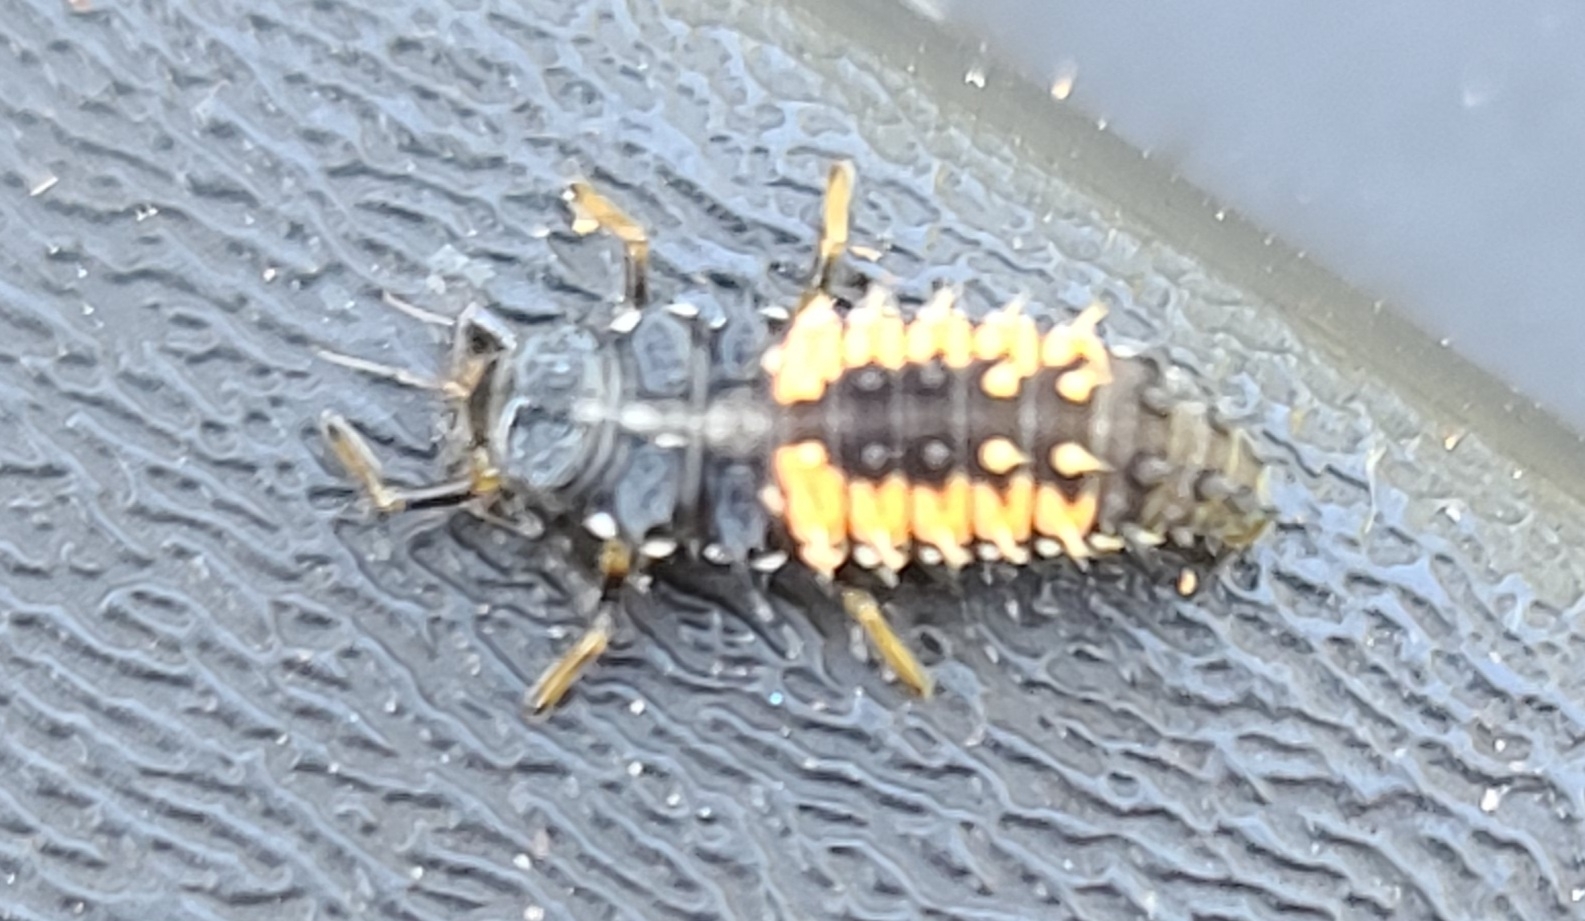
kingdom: Animalia
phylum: Arthropoda
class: Insecta
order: Coleoptera
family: Coccinellidae
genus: Harmonia
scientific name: Harmonia axyridis
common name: Harlequin ladybird
